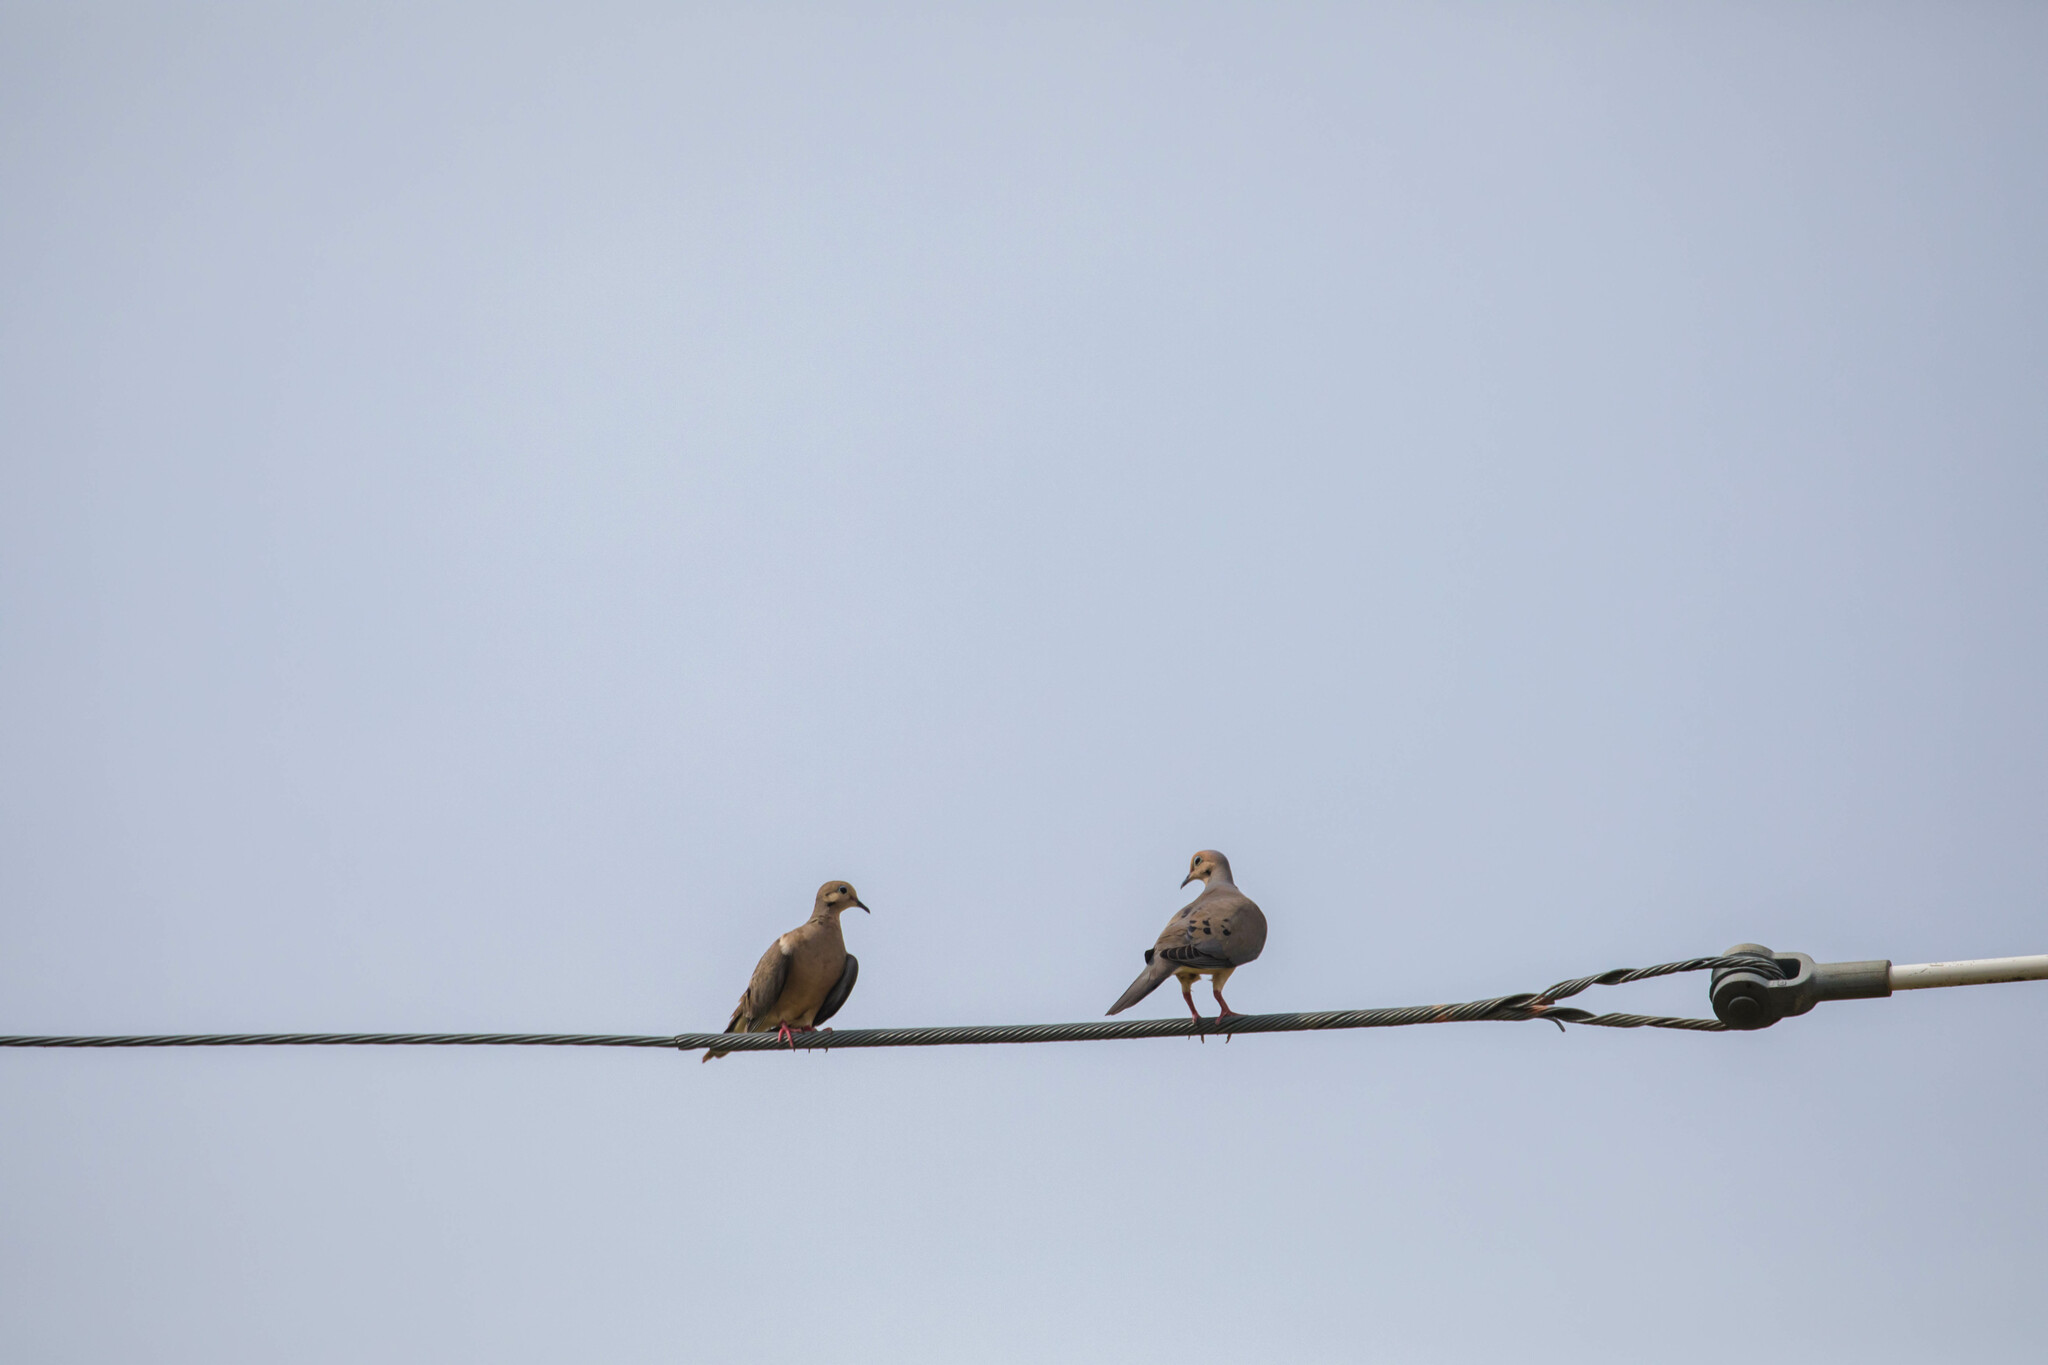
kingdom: Animalia
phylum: Chordata
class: Aves
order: Columbiformes
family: Columbidae
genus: Zenaida
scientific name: Zenaida macroura
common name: Mourning dove
